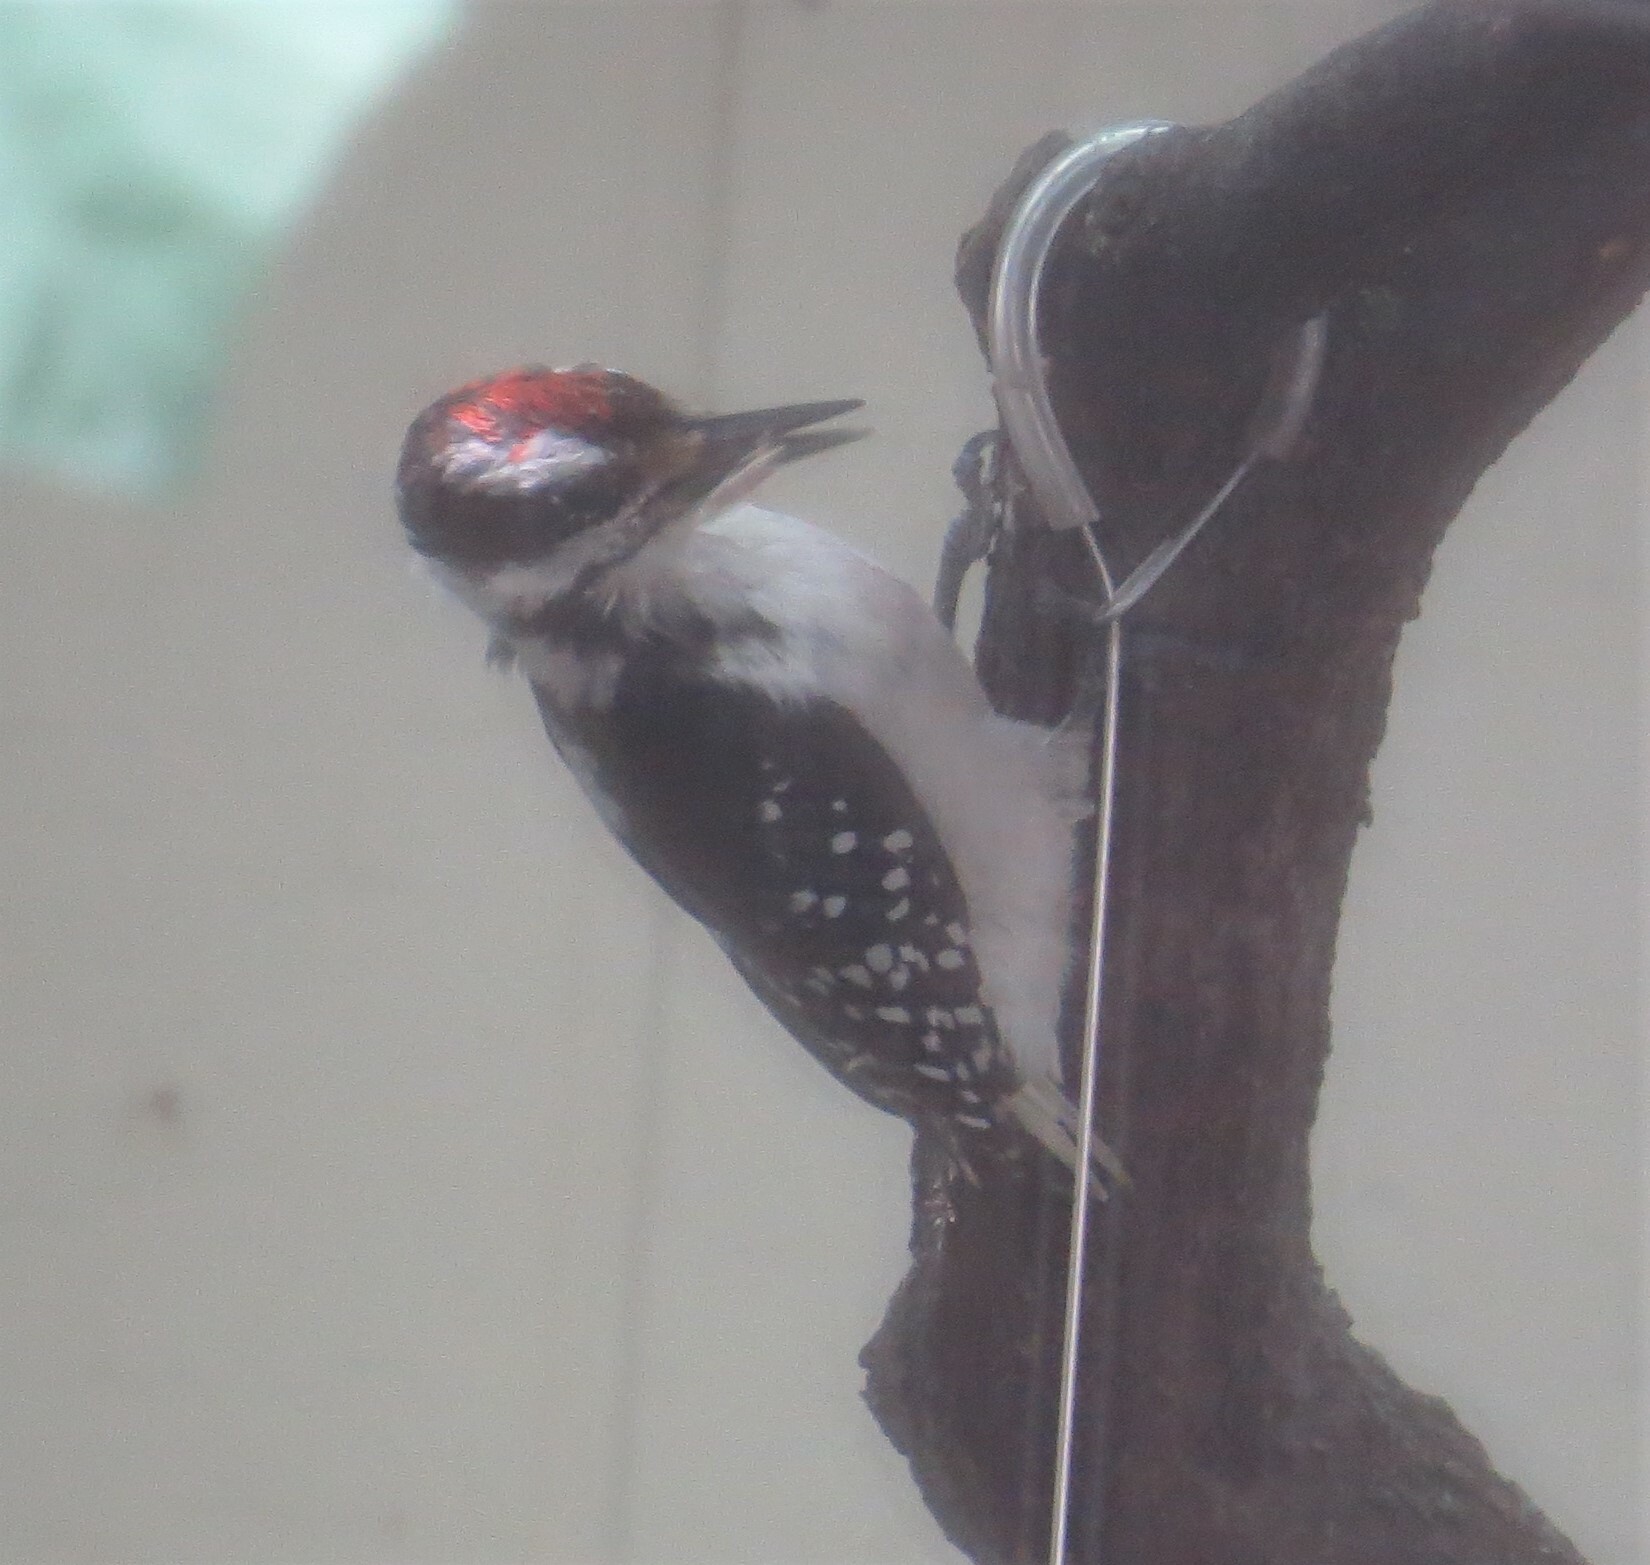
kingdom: Animalia
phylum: Chordata
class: Aves
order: Piciformes
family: Picidae
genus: Leuconotopicus
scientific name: Leuconotopicus villosus
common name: Hairy woodpecker
